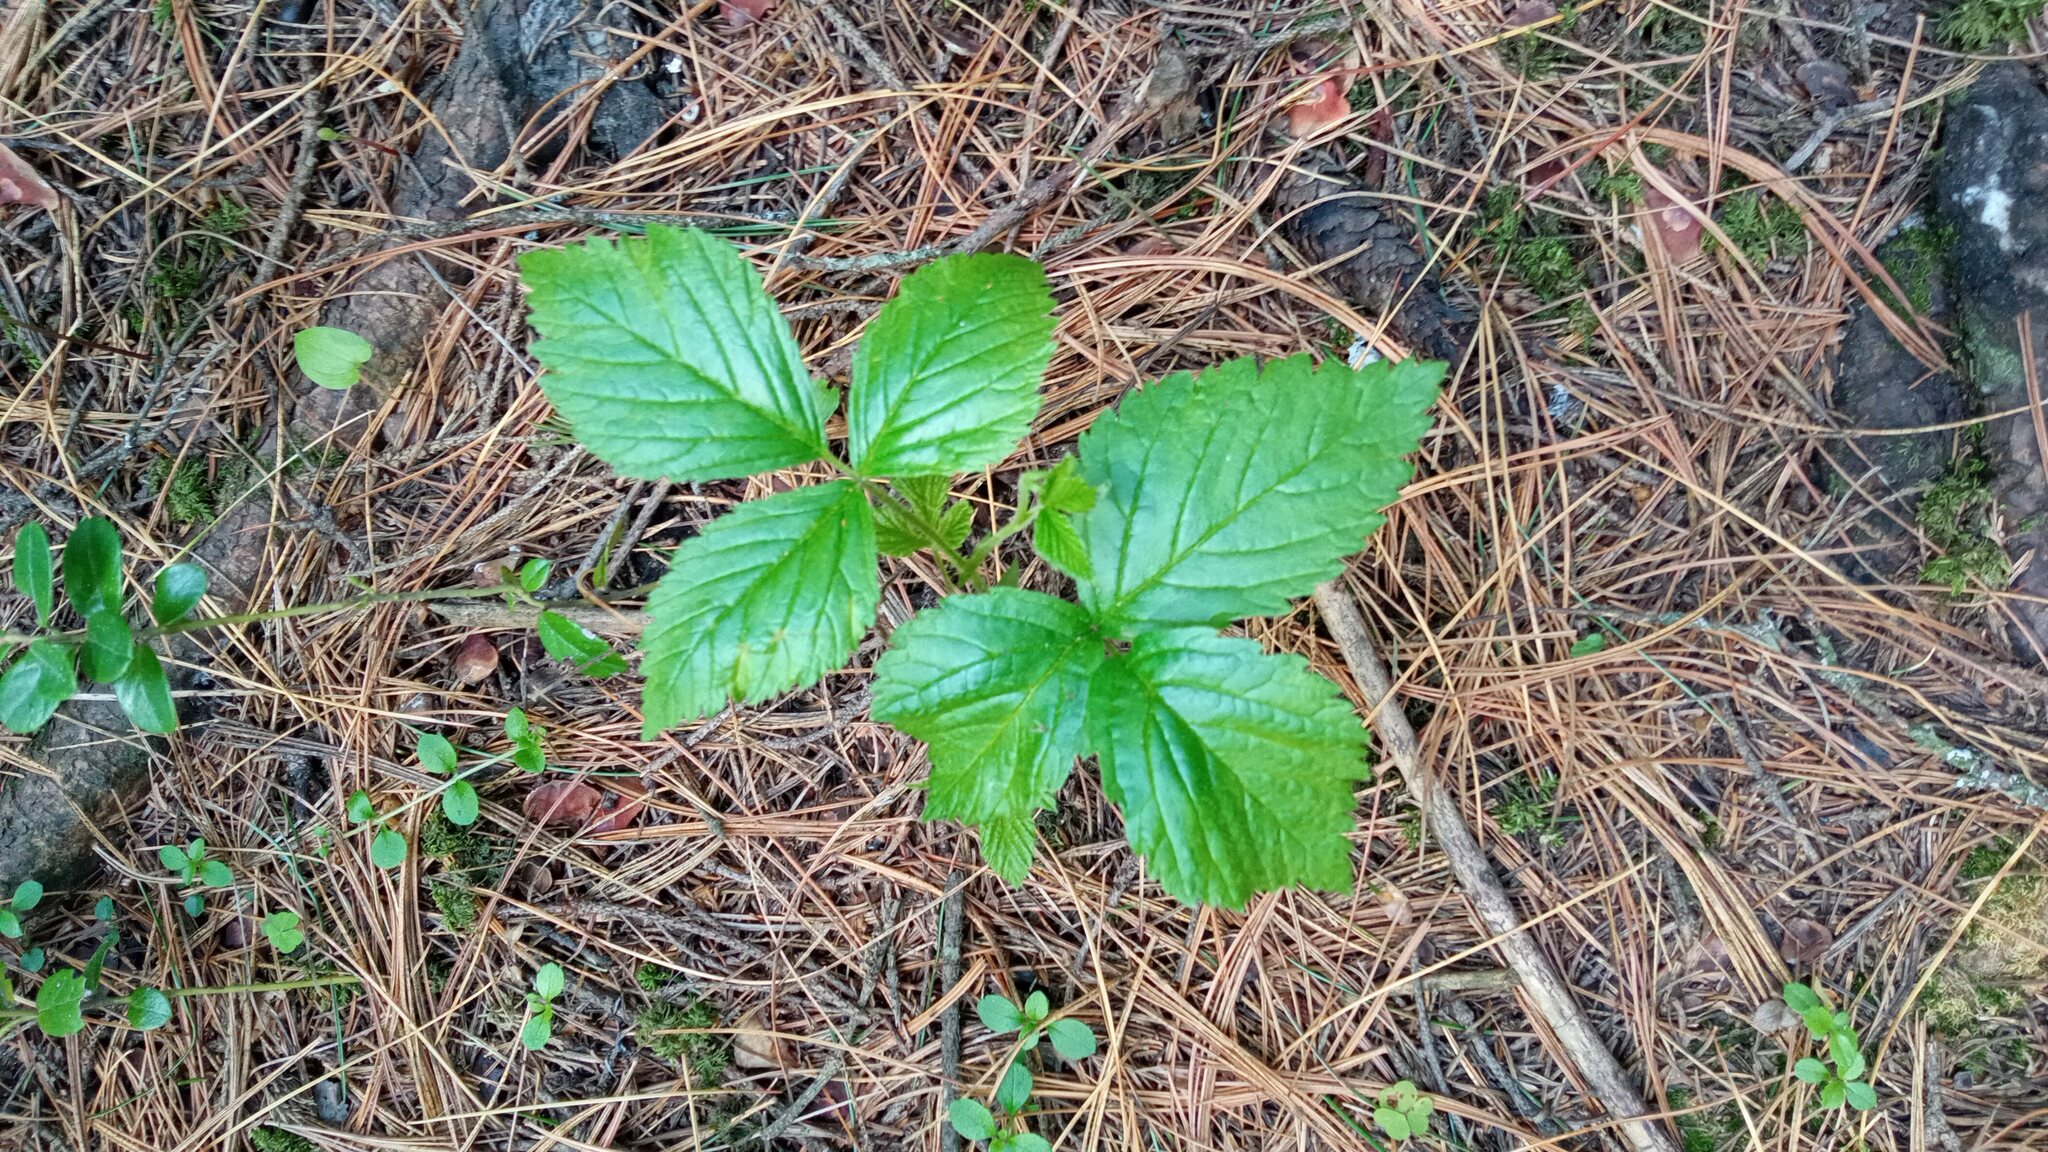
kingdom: Plantae
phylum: Tracheophyta
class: Magnoliopsida
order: Rosales
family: Rosaceae
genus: Rubus
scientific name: Rubus saxatilis
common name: Stone bramble
